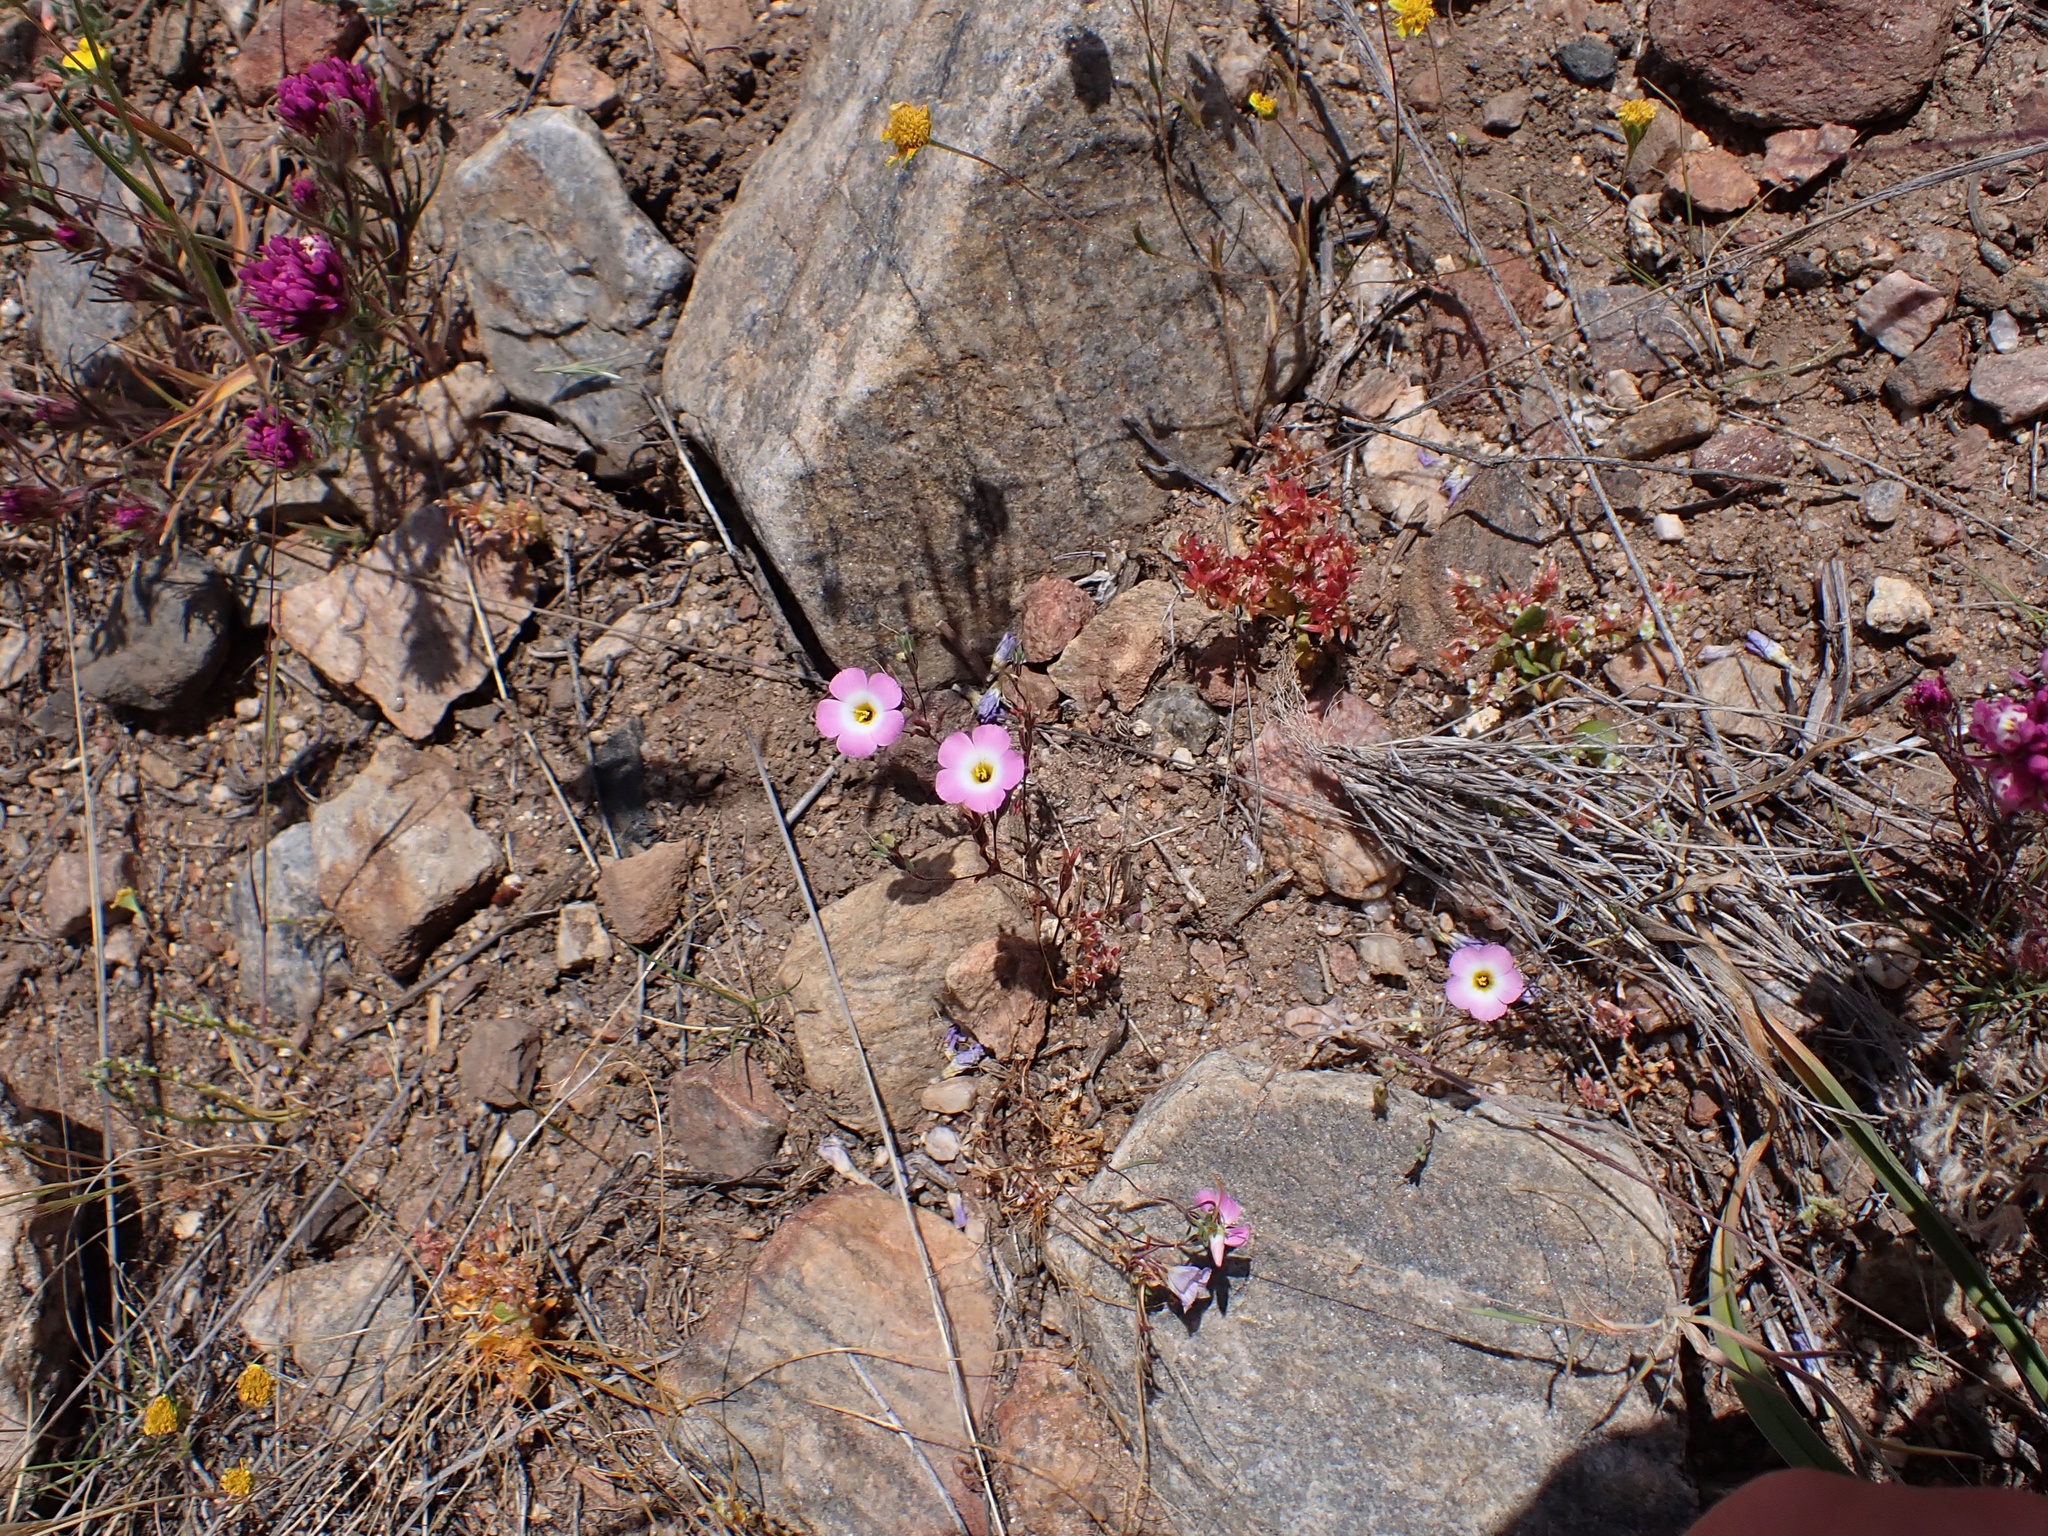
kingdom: Plantae
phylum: Tracheophyta
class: Magnoliopsida
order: Ericales
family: Polemoniaceae
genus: Linanthus
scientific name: Linanthus dianthiflorus
